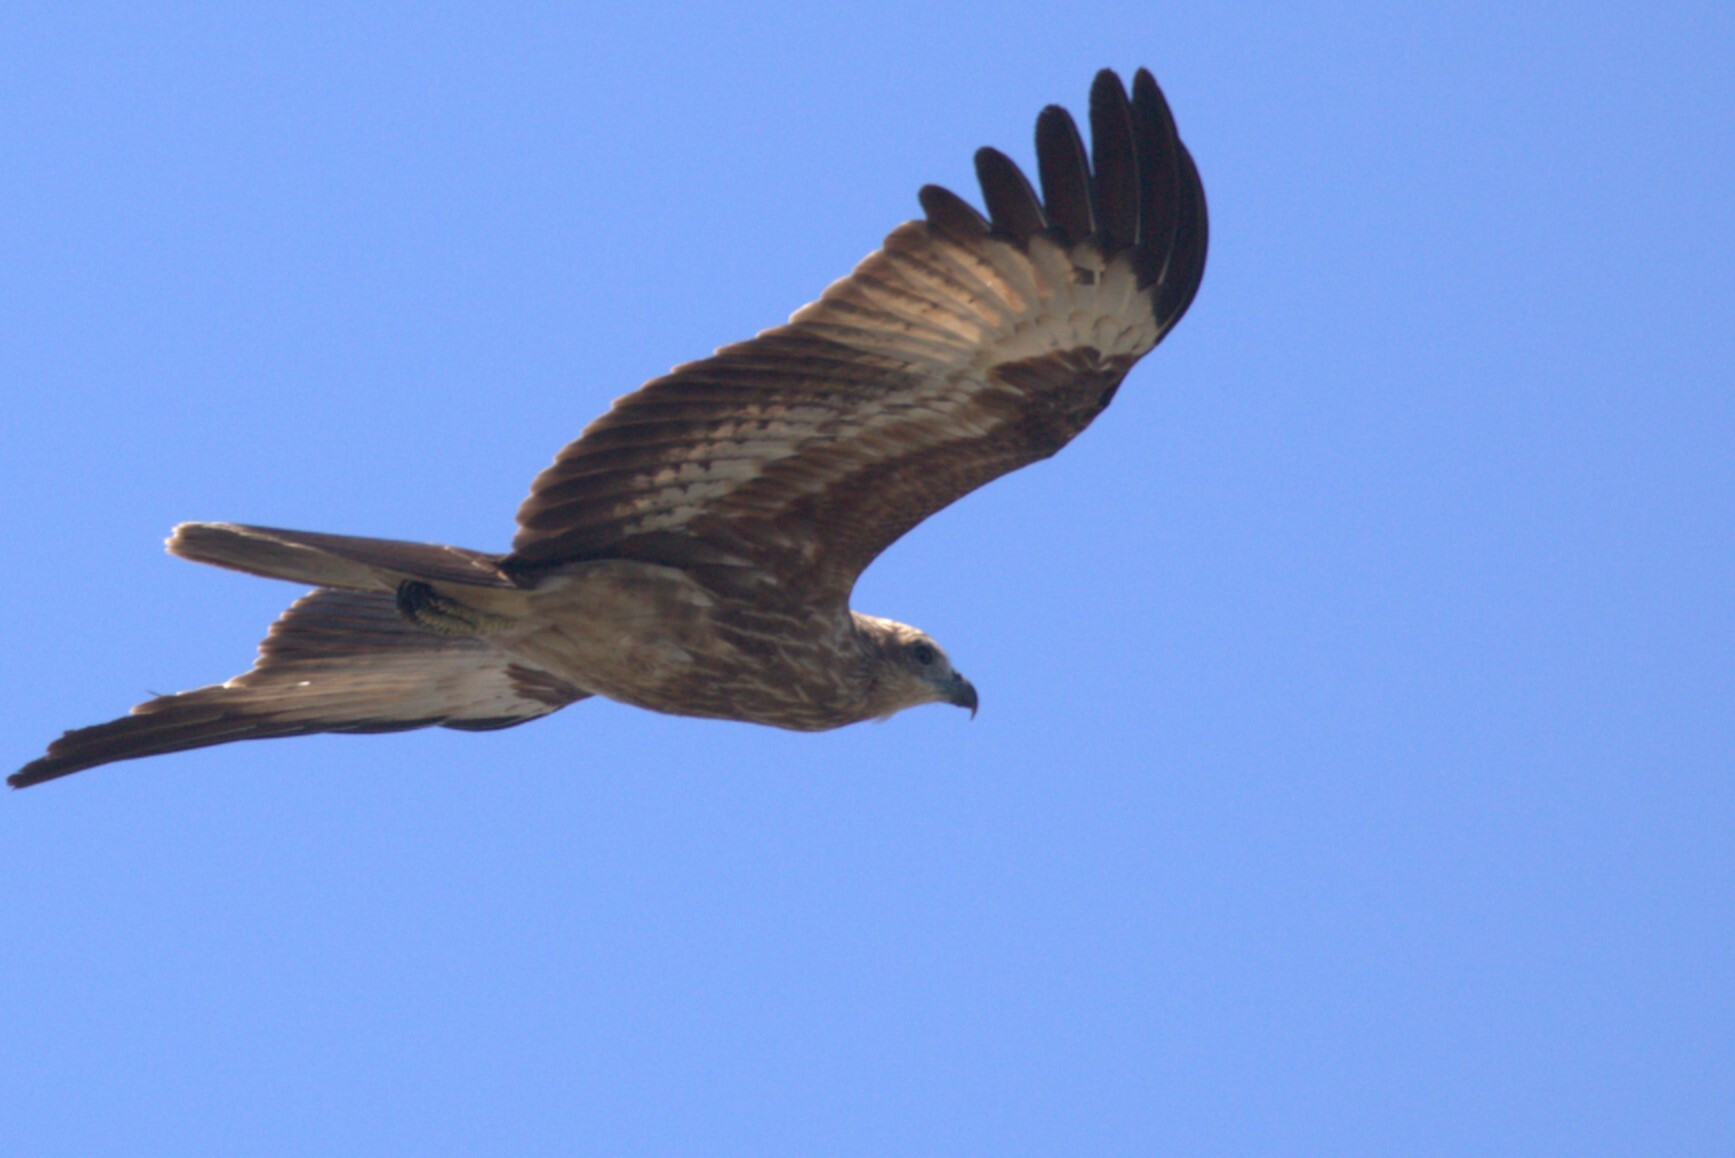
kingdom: Animalia
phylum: Chordata
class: Aves
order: Accipitriformes
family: Accipitridae
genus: Haliastur
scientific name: Haliastur indus
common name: Brahminy kite
